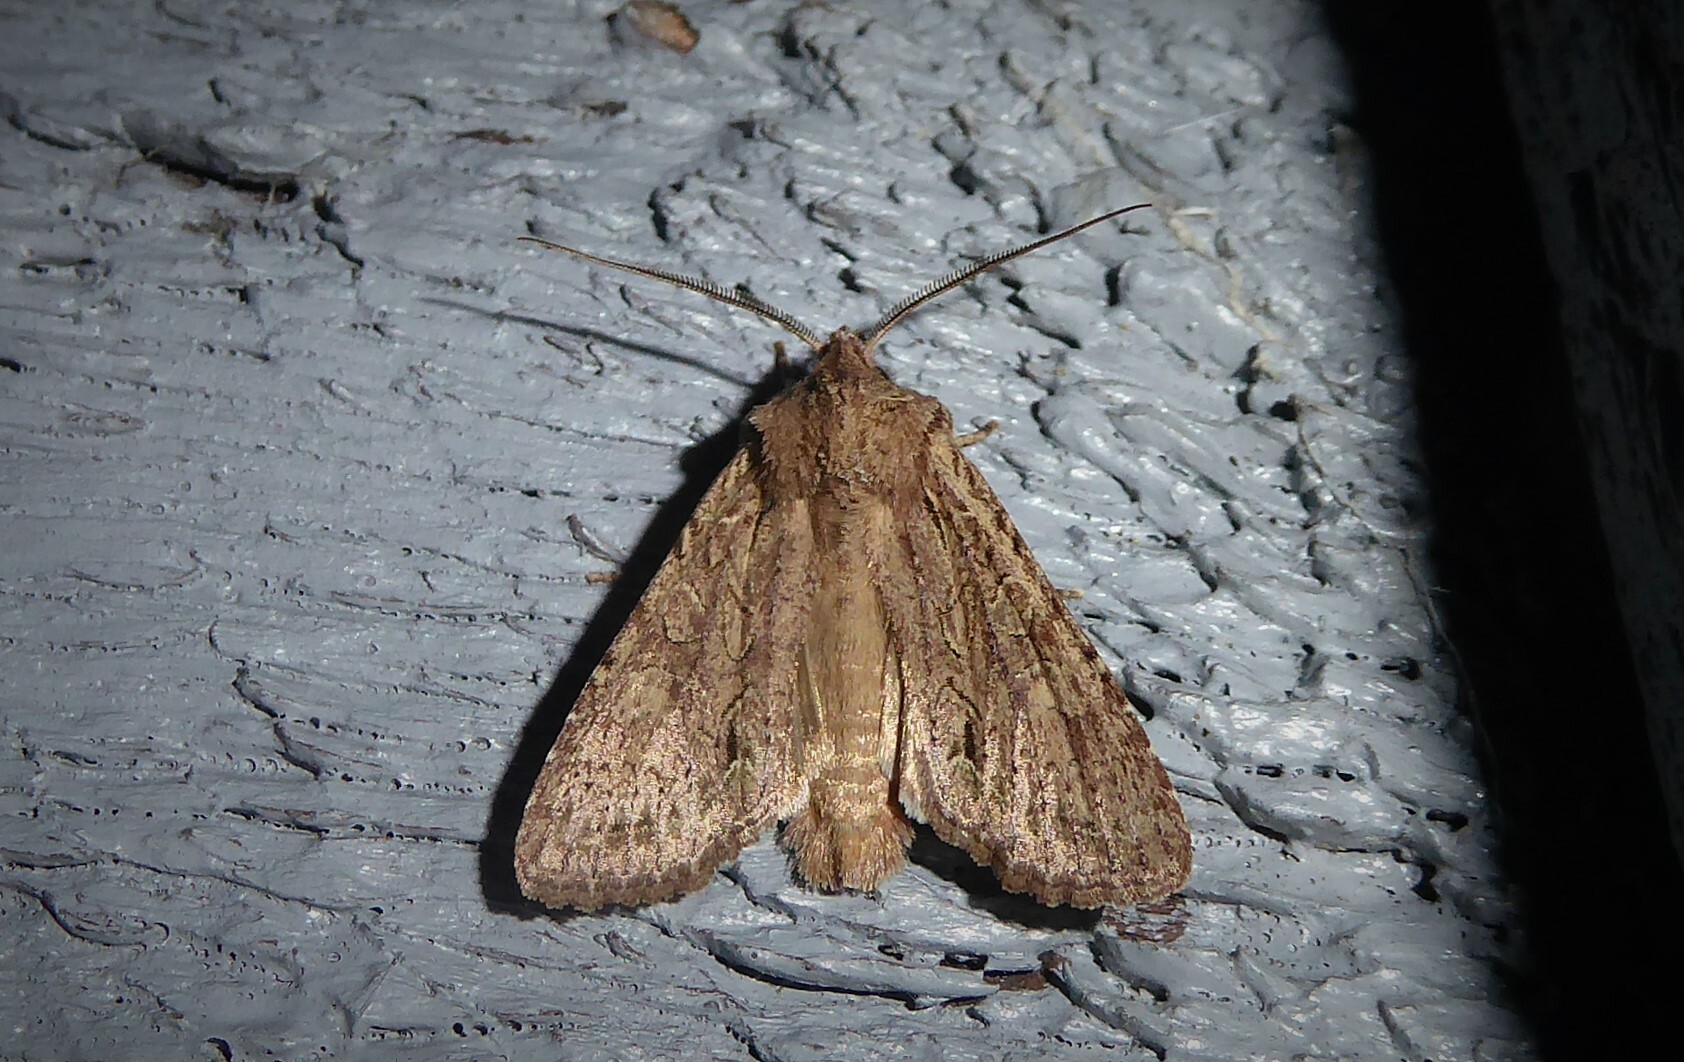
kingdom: Animalia
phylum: Arthropoda
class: Insecta
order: Lepidoptera
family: Noctuidae
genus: Ichneutica
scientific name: Ichneutica
